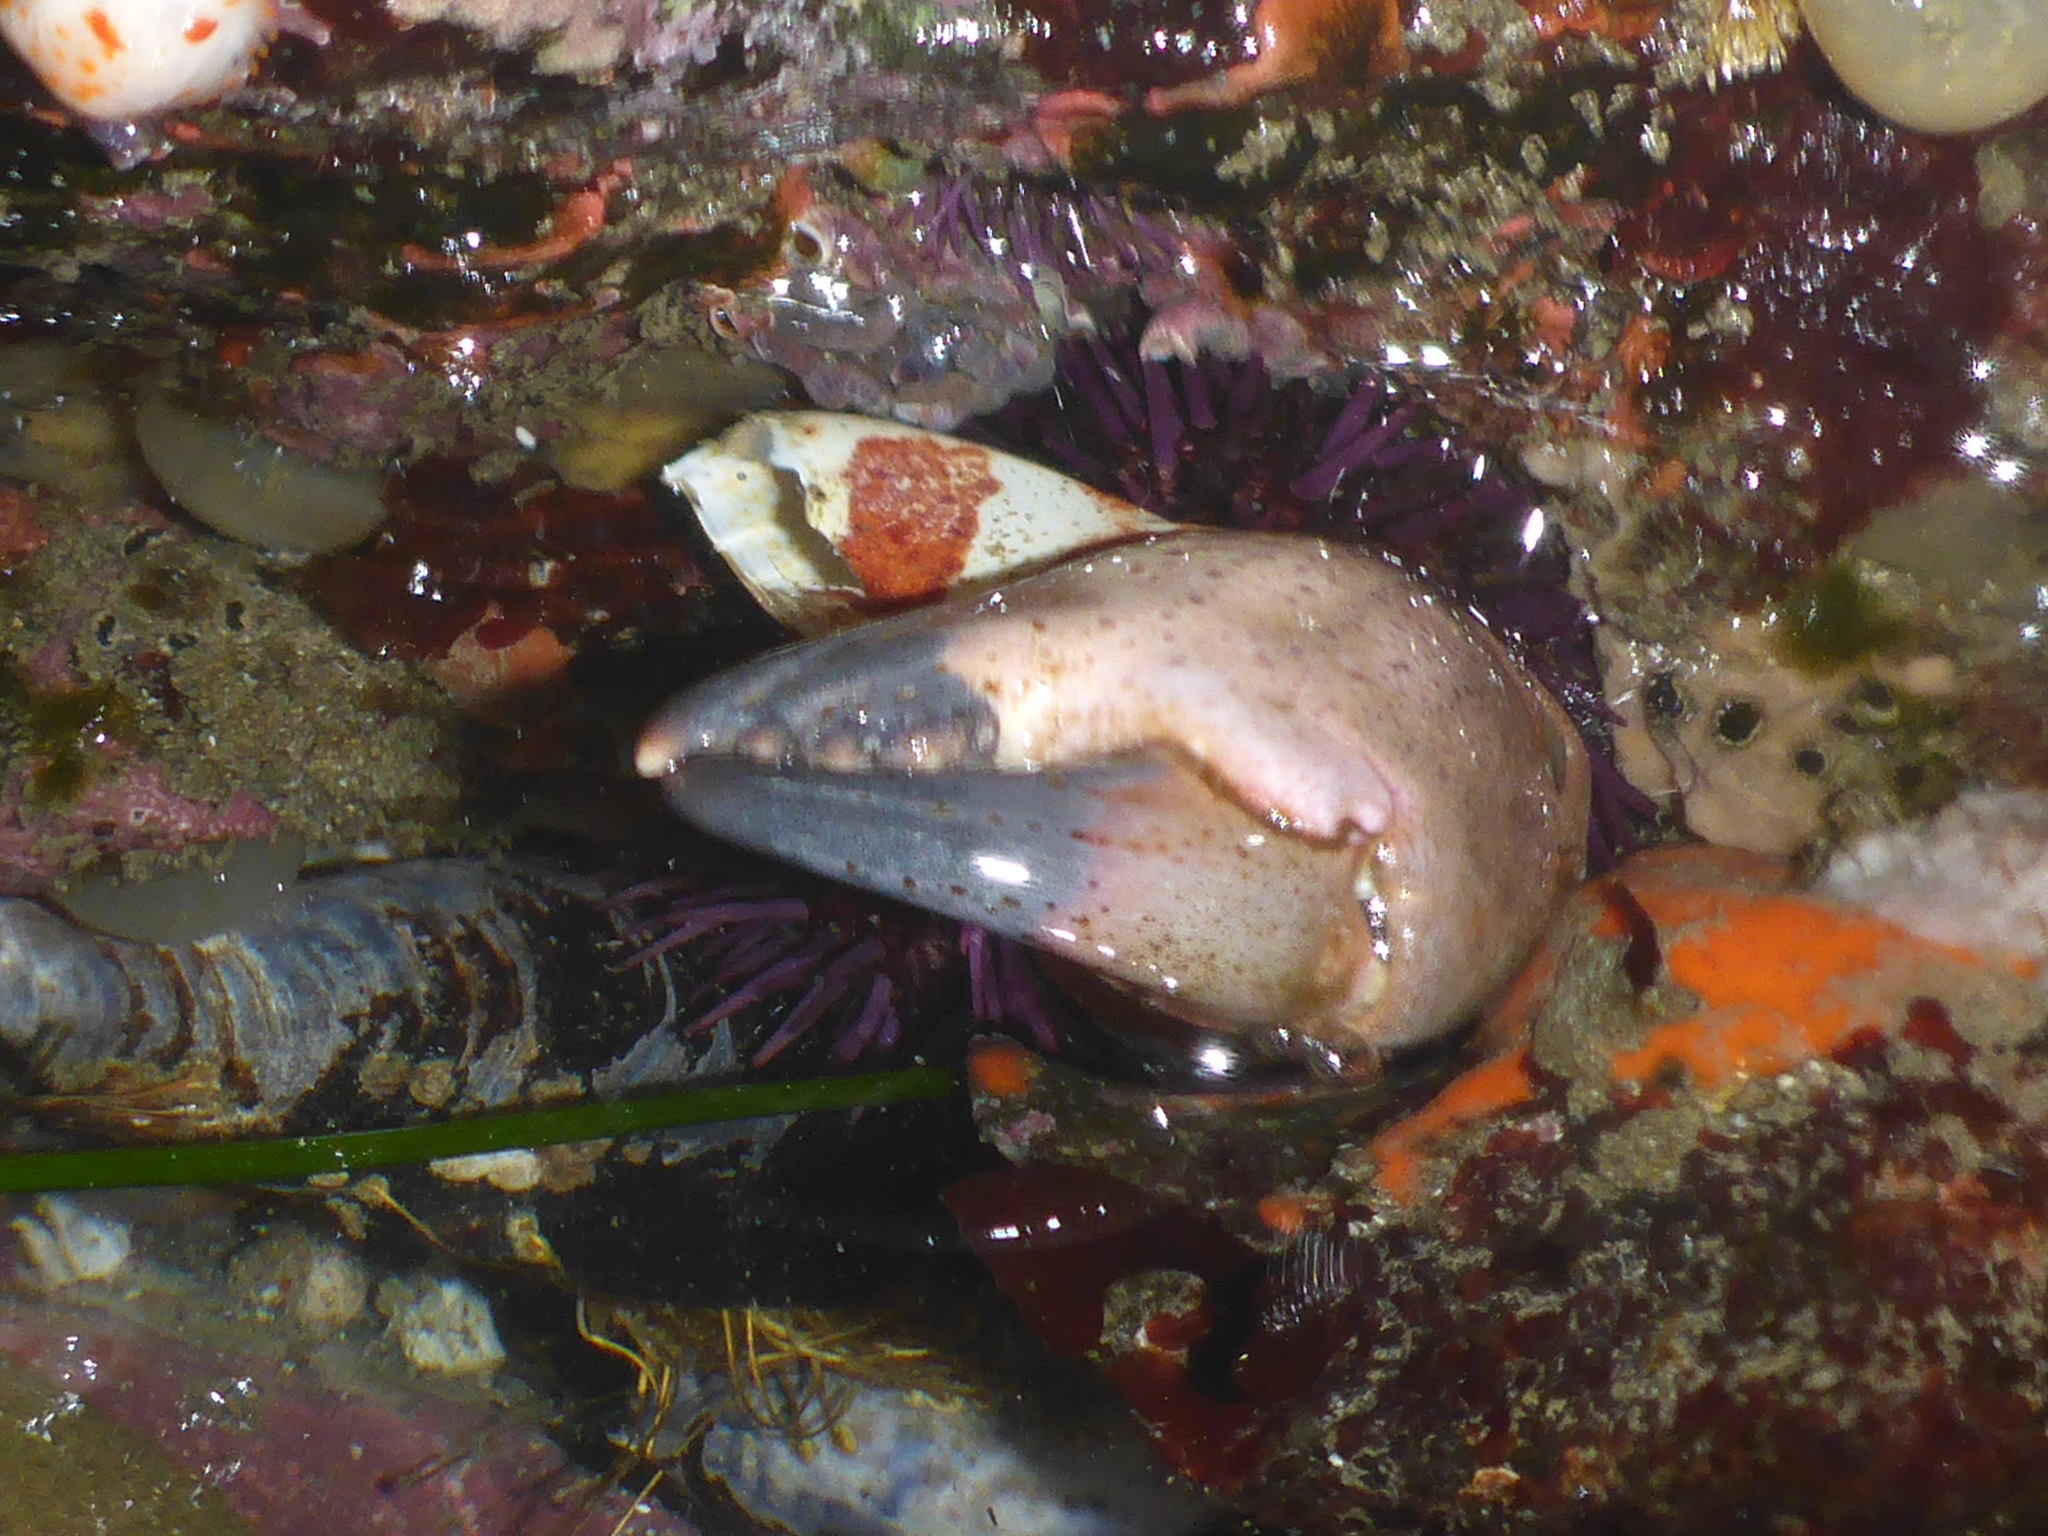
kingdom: Animalia
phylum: Arthropoda
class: Malacostraca
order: Decapoda
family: Cancridae
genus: Romaleon
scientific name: Romaleon antennarium
